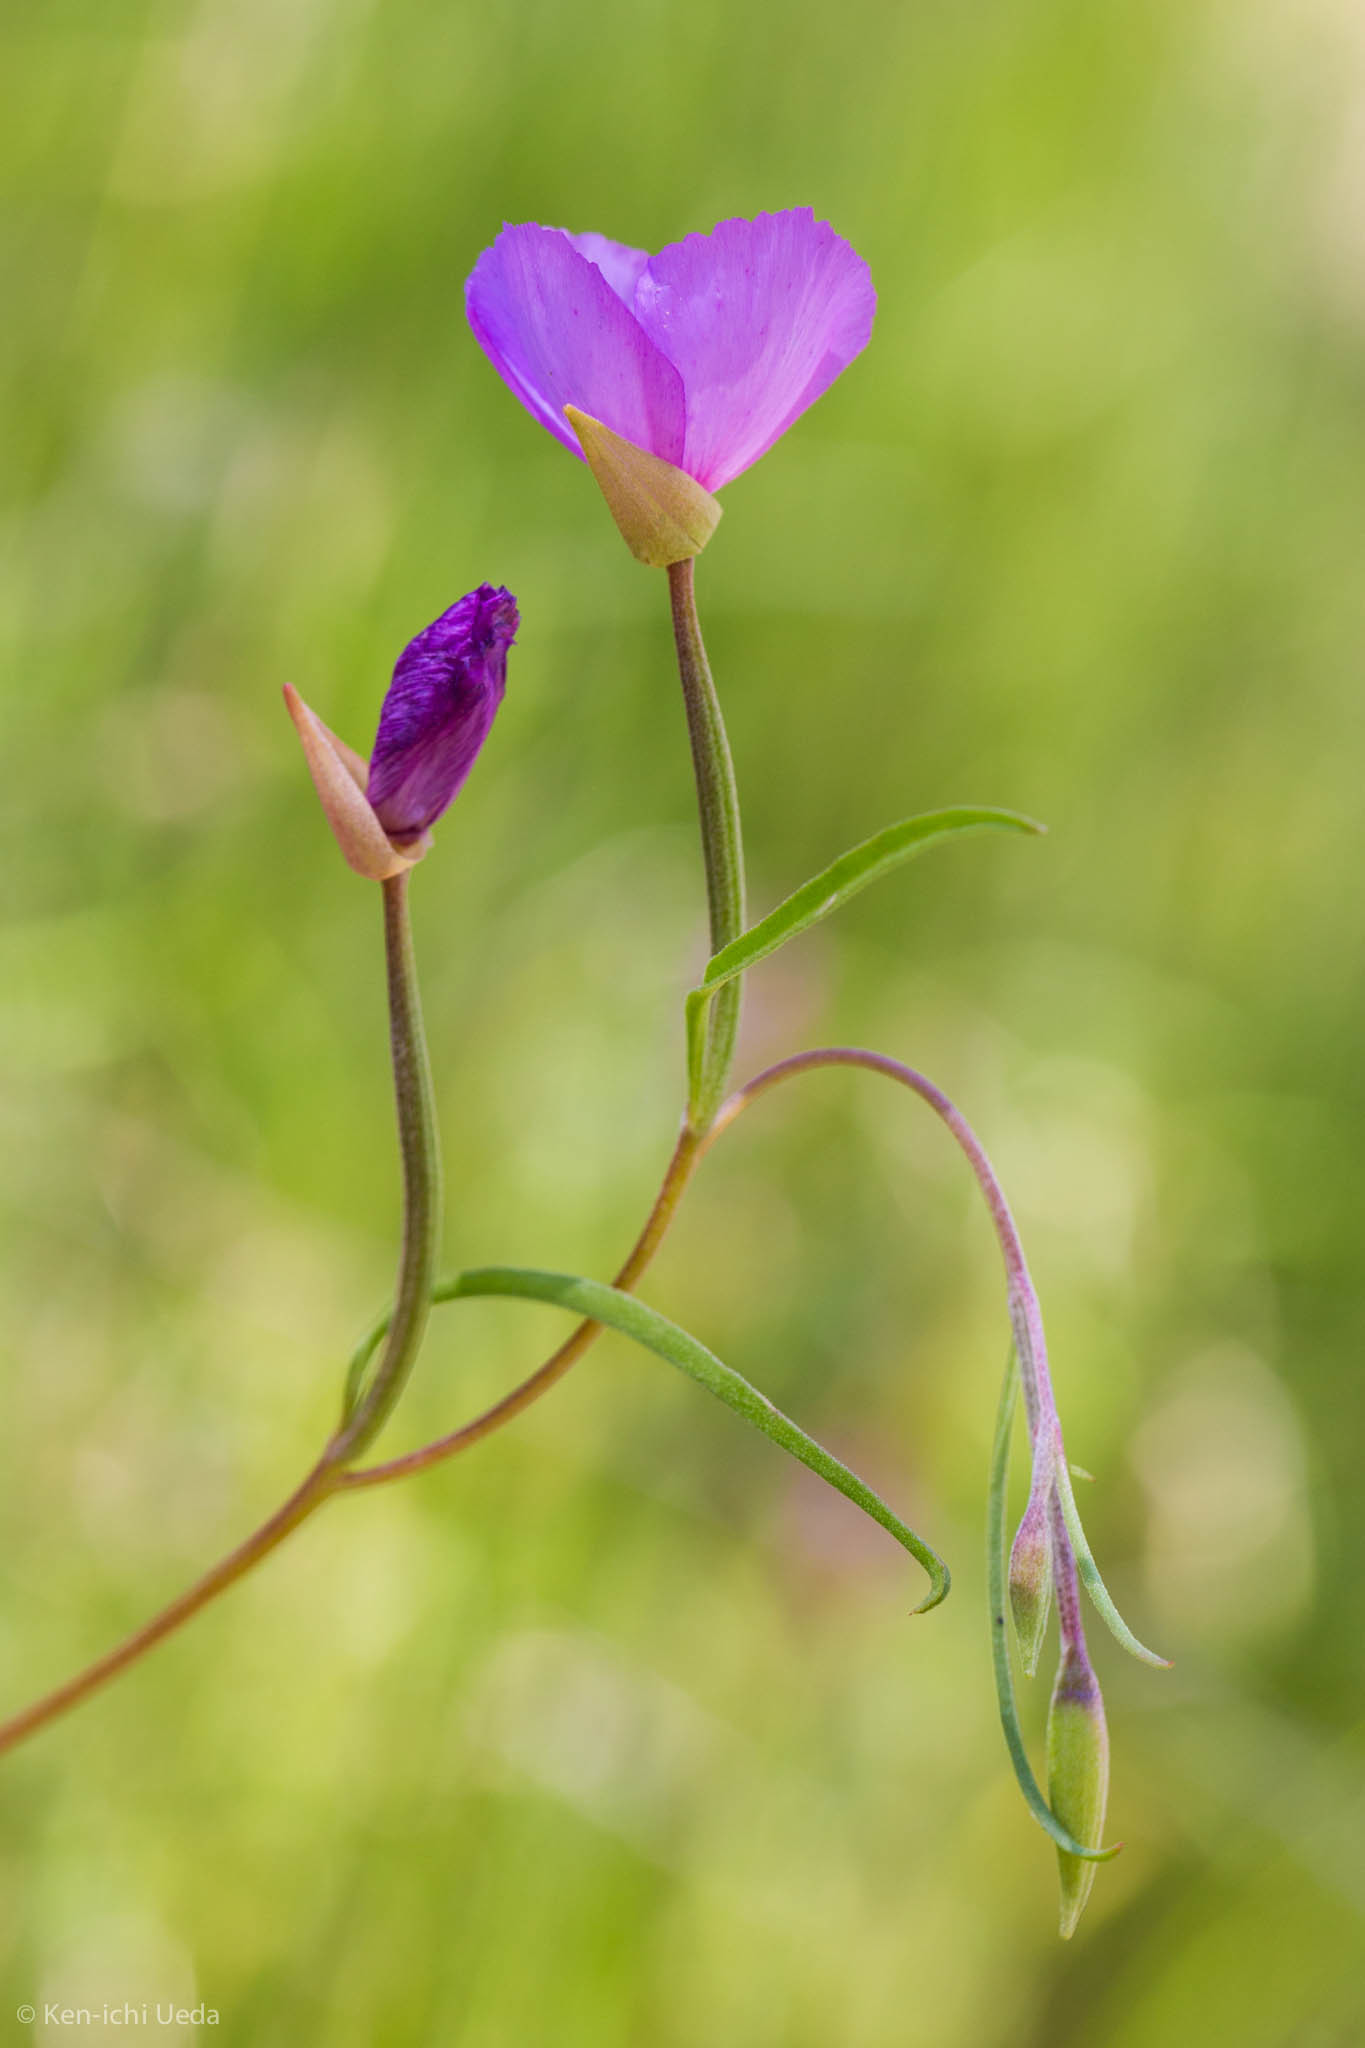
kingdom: Plantae
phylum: Tracheophyta
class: Magnoliopsida
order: Myrtales
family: Onagraceae
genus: Clarkia
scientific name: Clarkia gracilis
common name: Graceful clarkia
